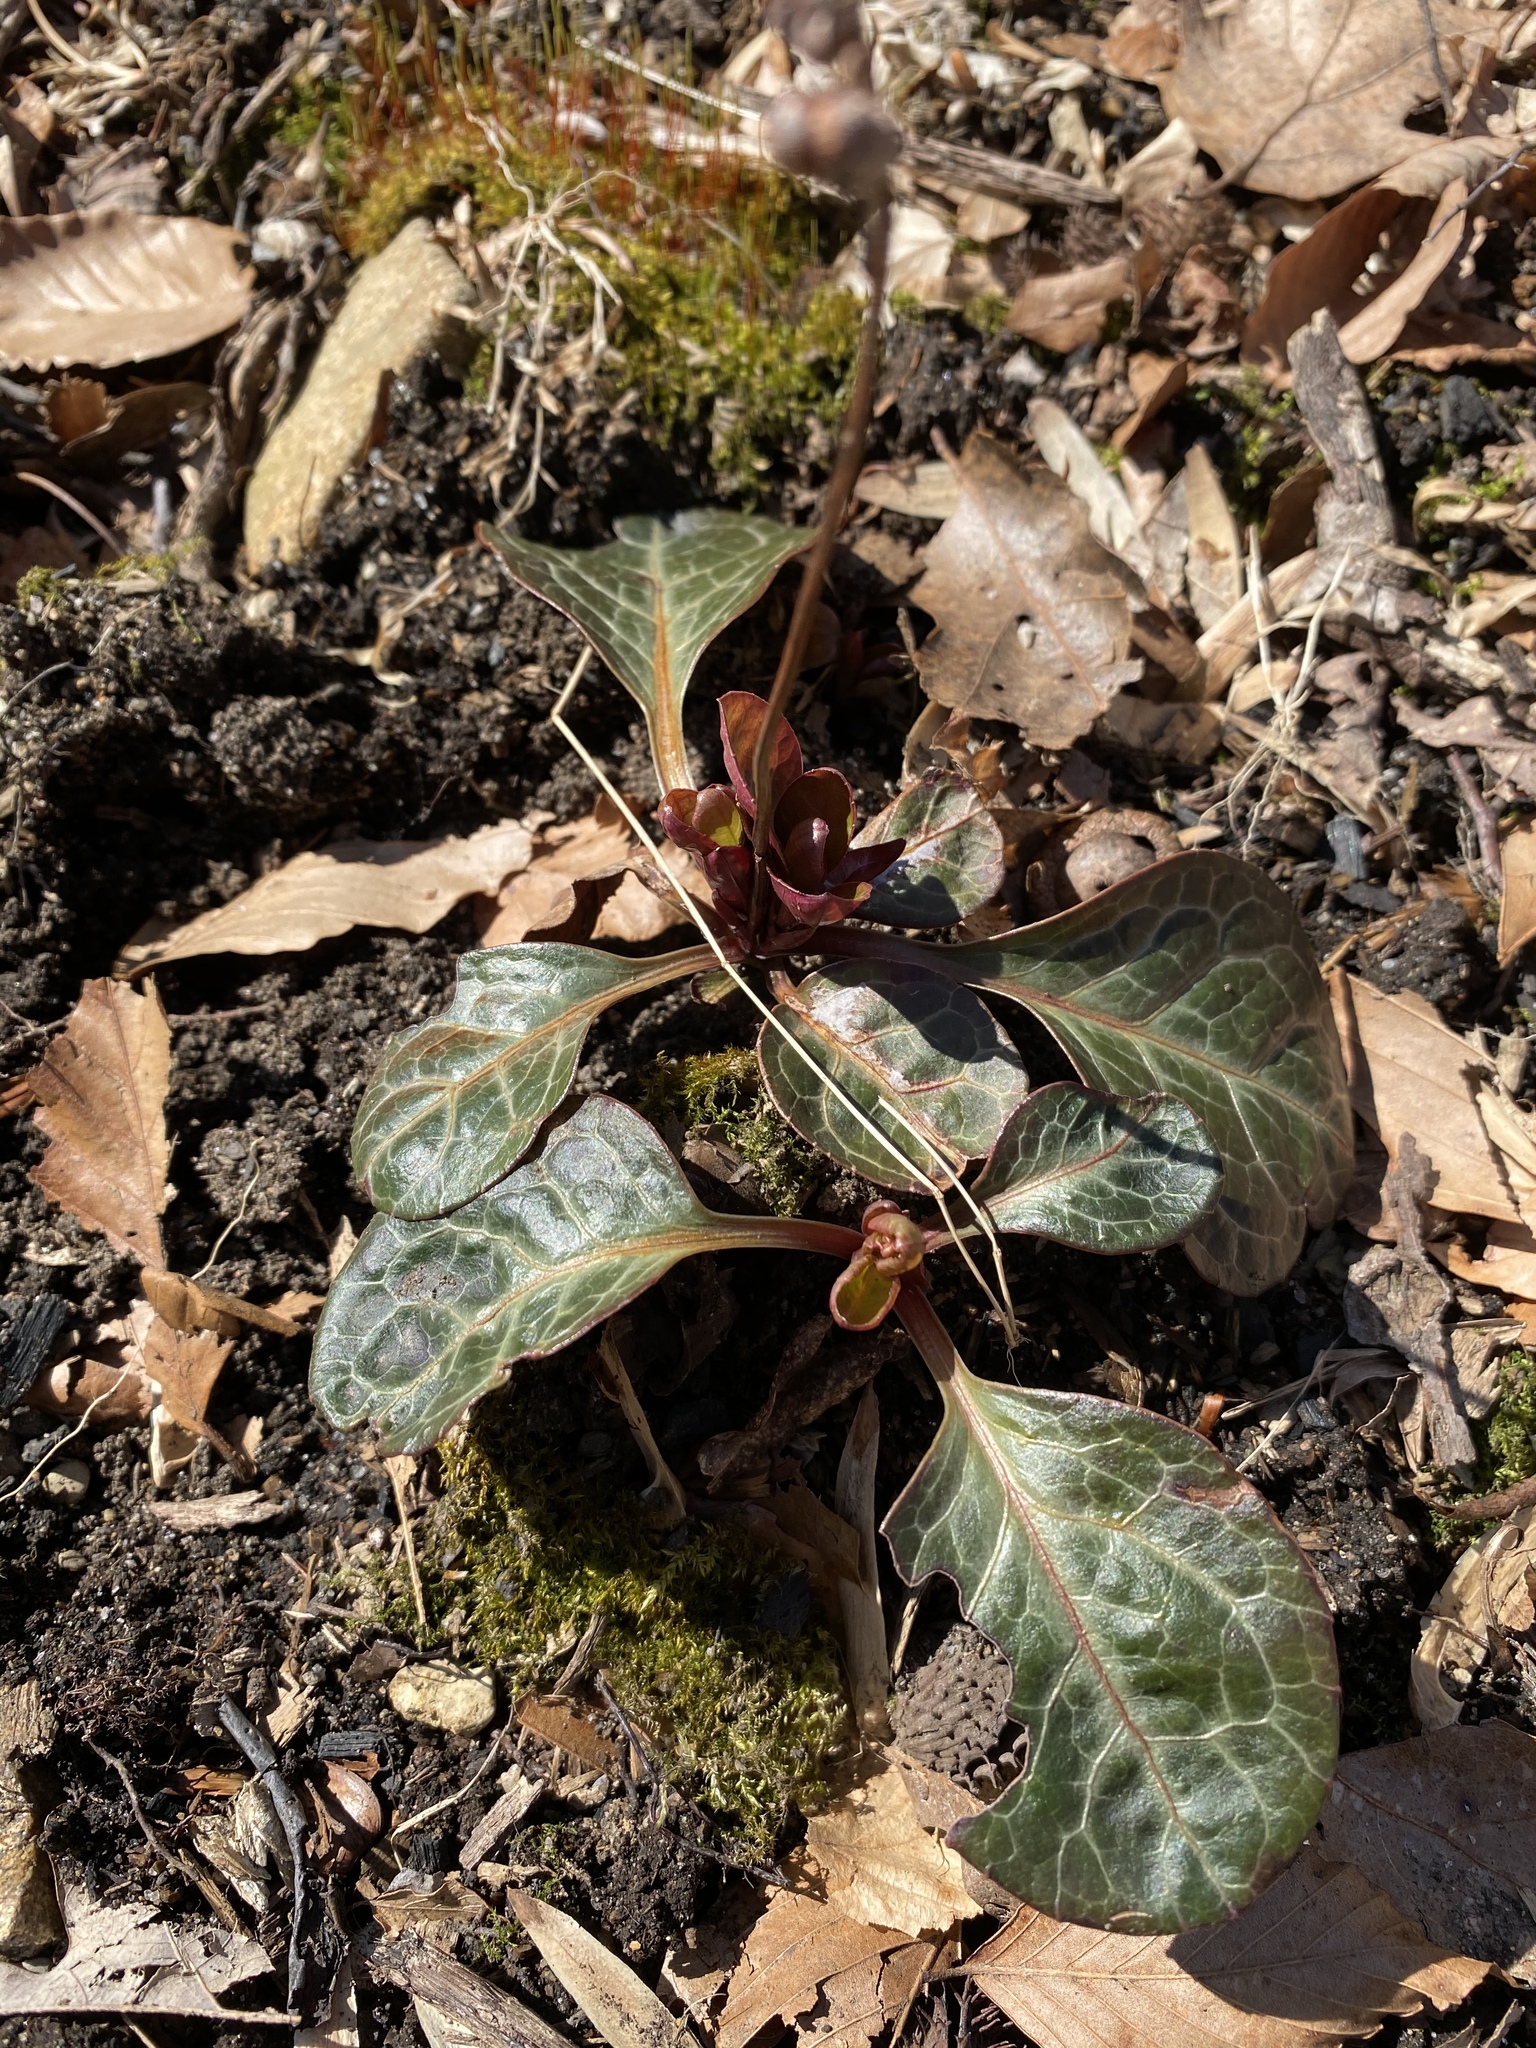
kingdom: Plantae
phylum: Tracheophyta
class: Magnoliopsida
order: Ericales
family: Ericaceae
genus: Pyrola
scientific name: Pyrola americana
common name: American wintergreen
